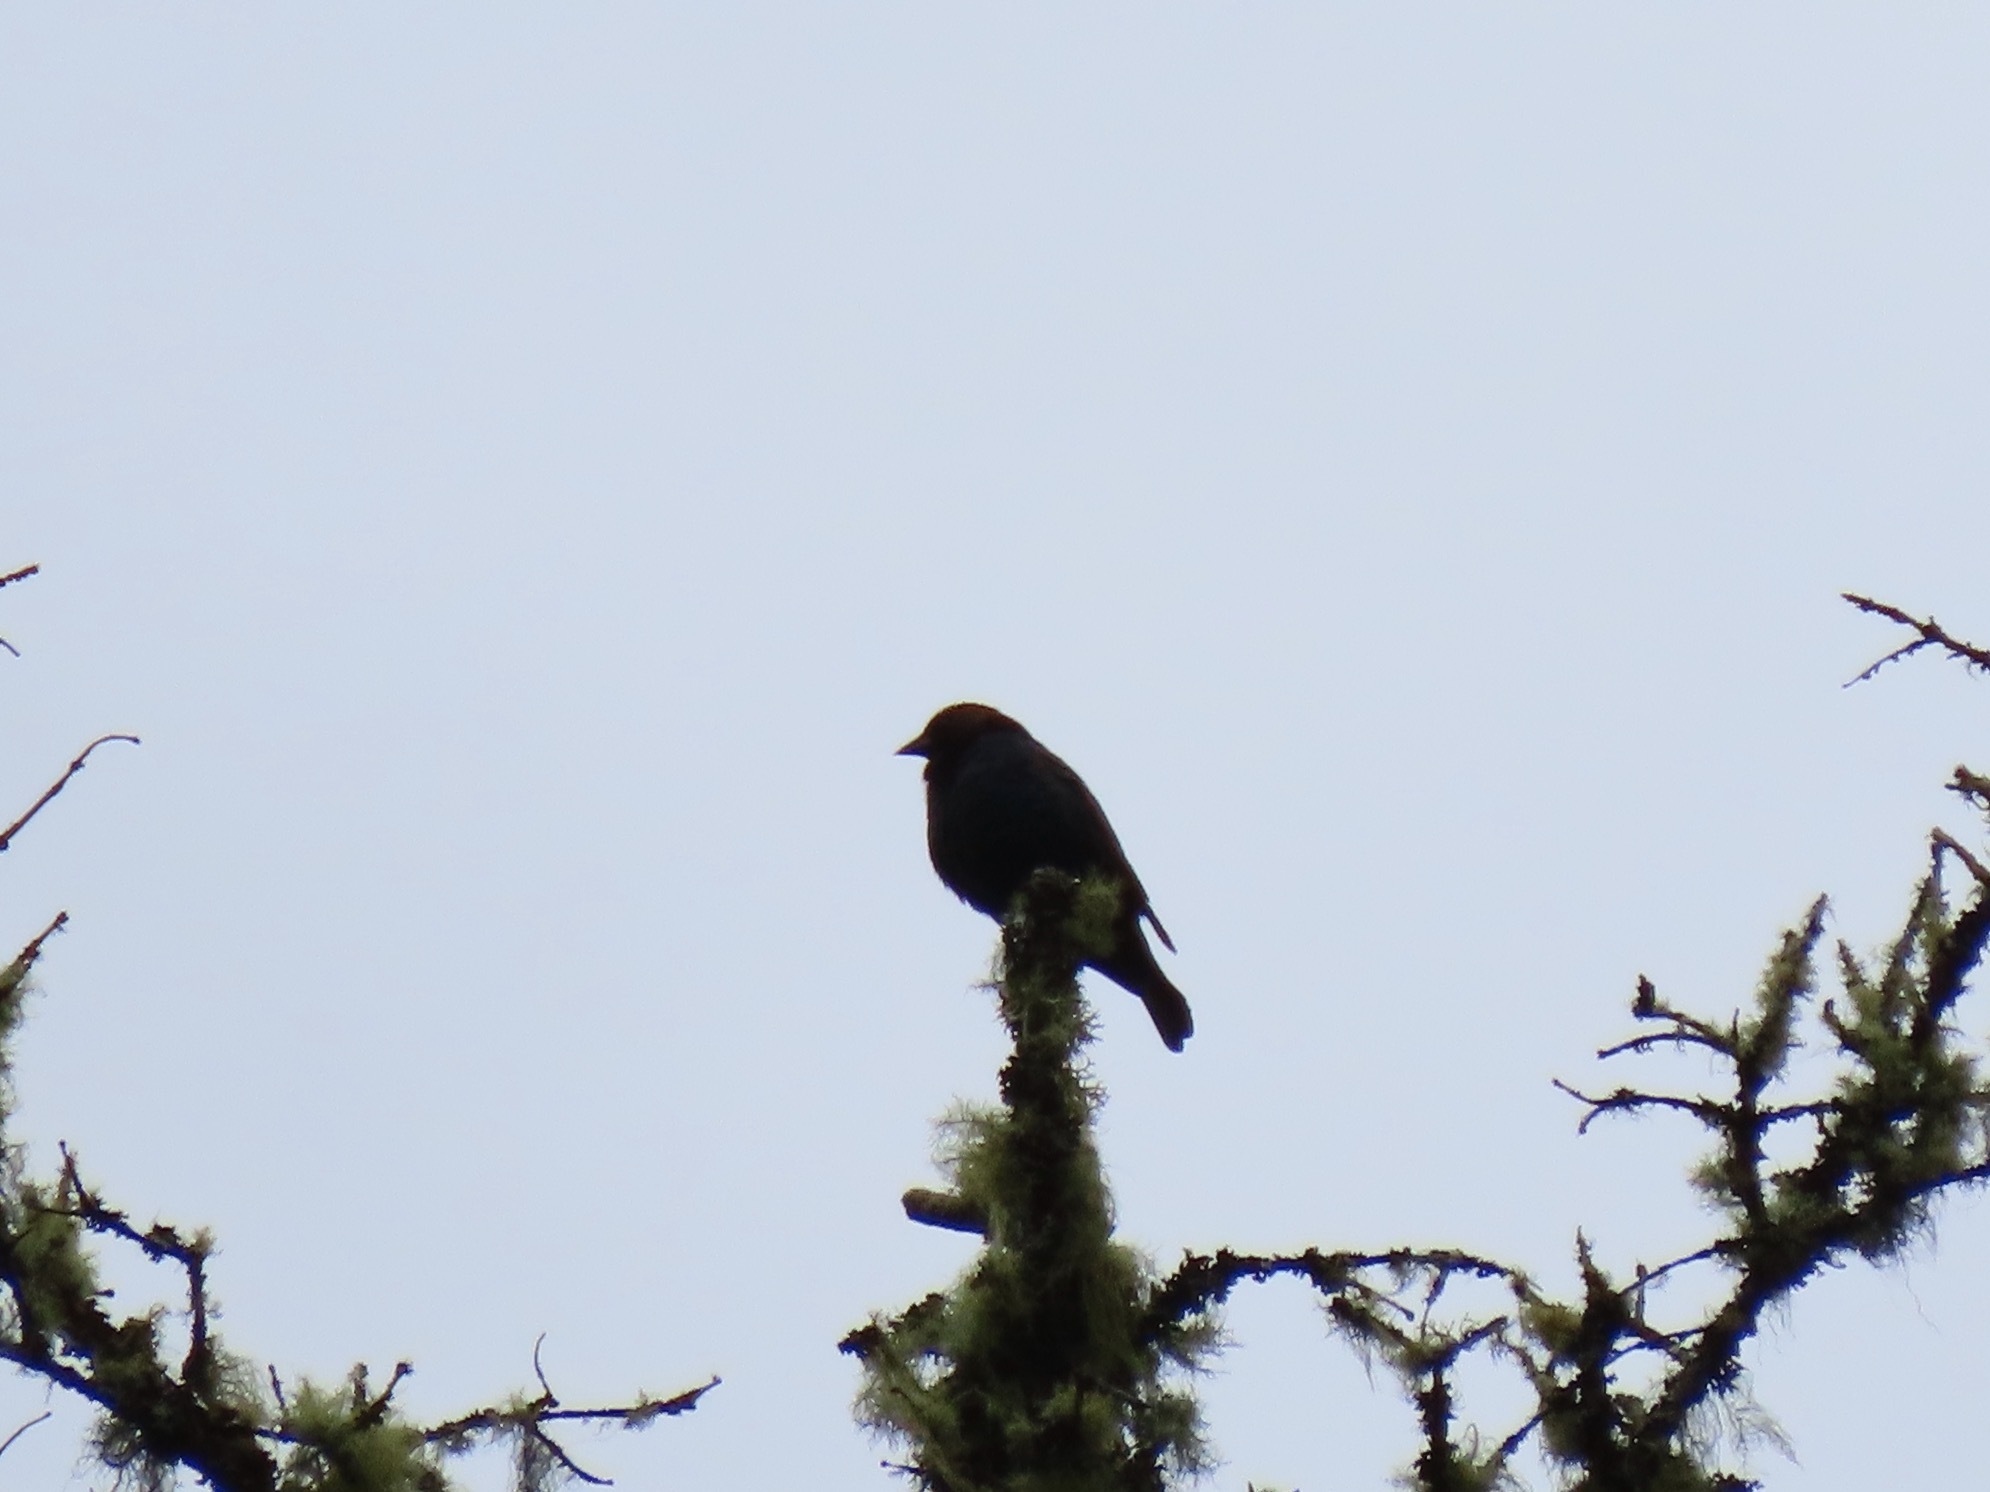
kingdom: Animalia
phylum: Chordata
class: Aves
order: Passeriformes
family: Icteridae
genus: Molothrus
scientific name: Molothrus ater
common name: Brown-headed cowbird
